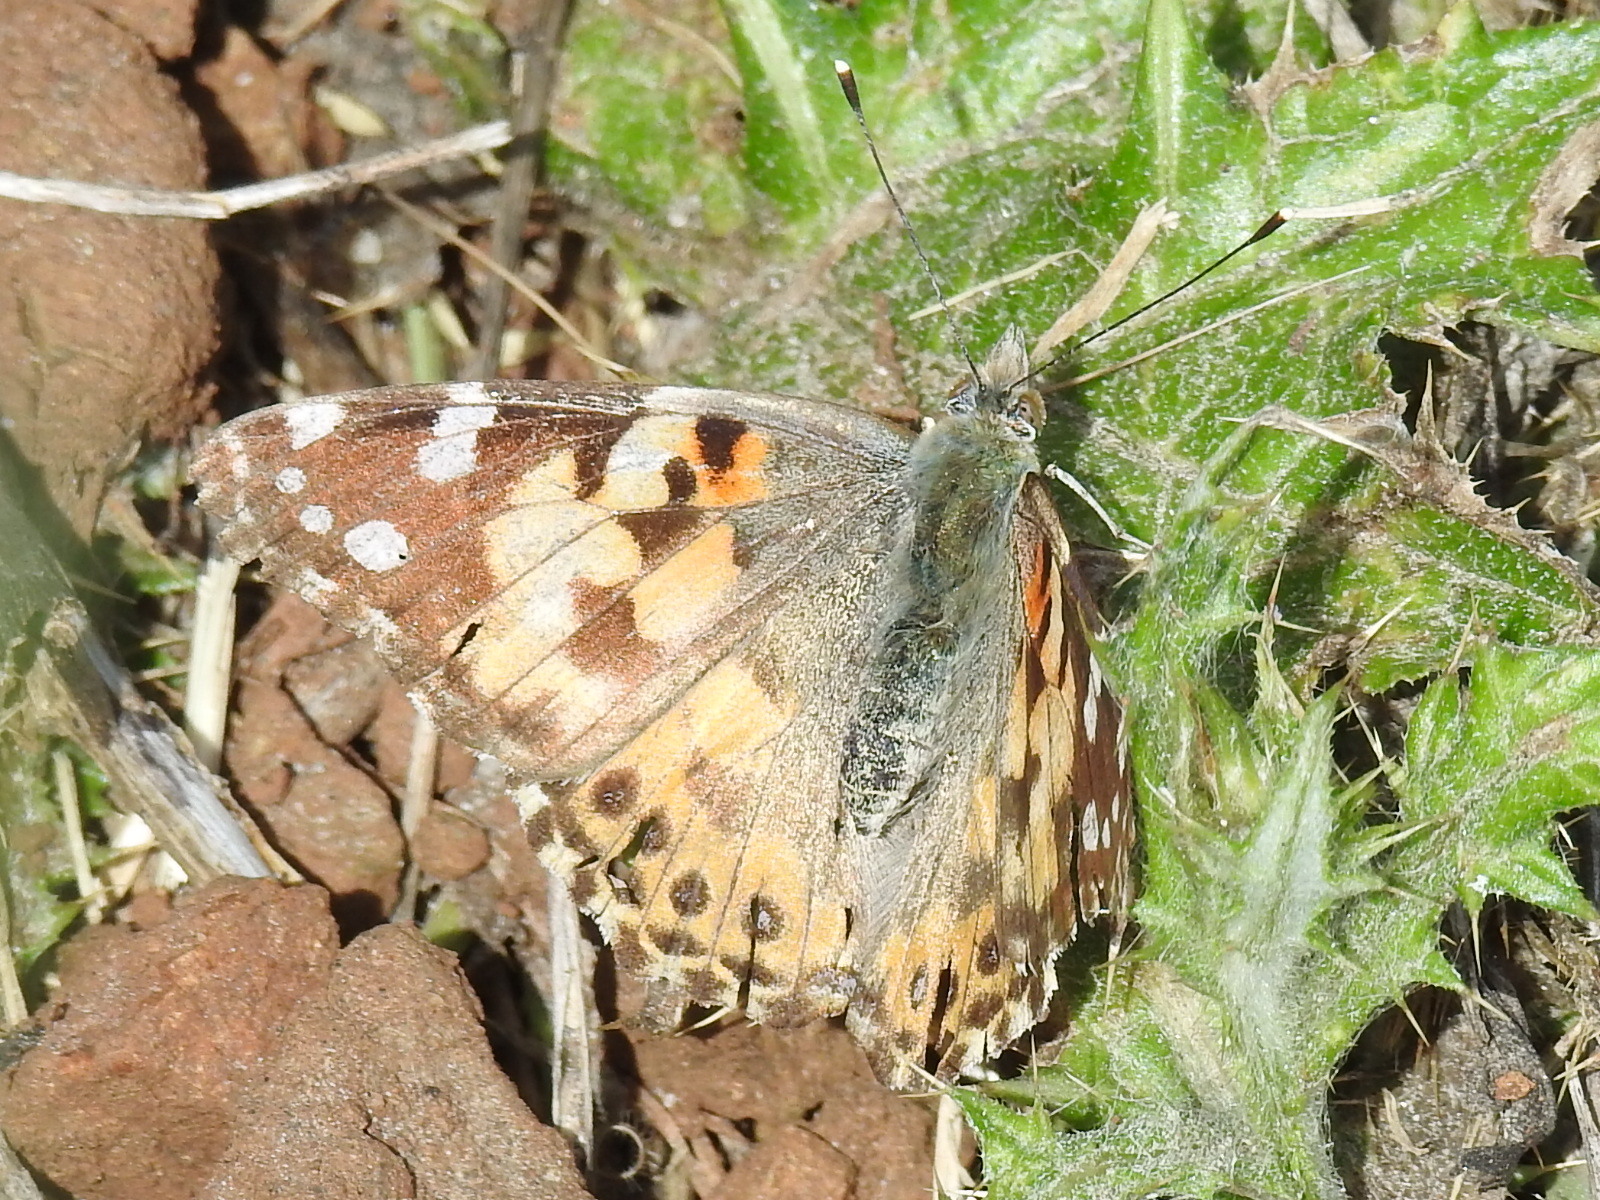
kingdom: Animalia
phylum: Arthropoda
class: Insecta
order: Lepidoptera
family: Nymphalidae
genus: Vanessa
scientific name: Vanessa cardui
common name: Painted lady
